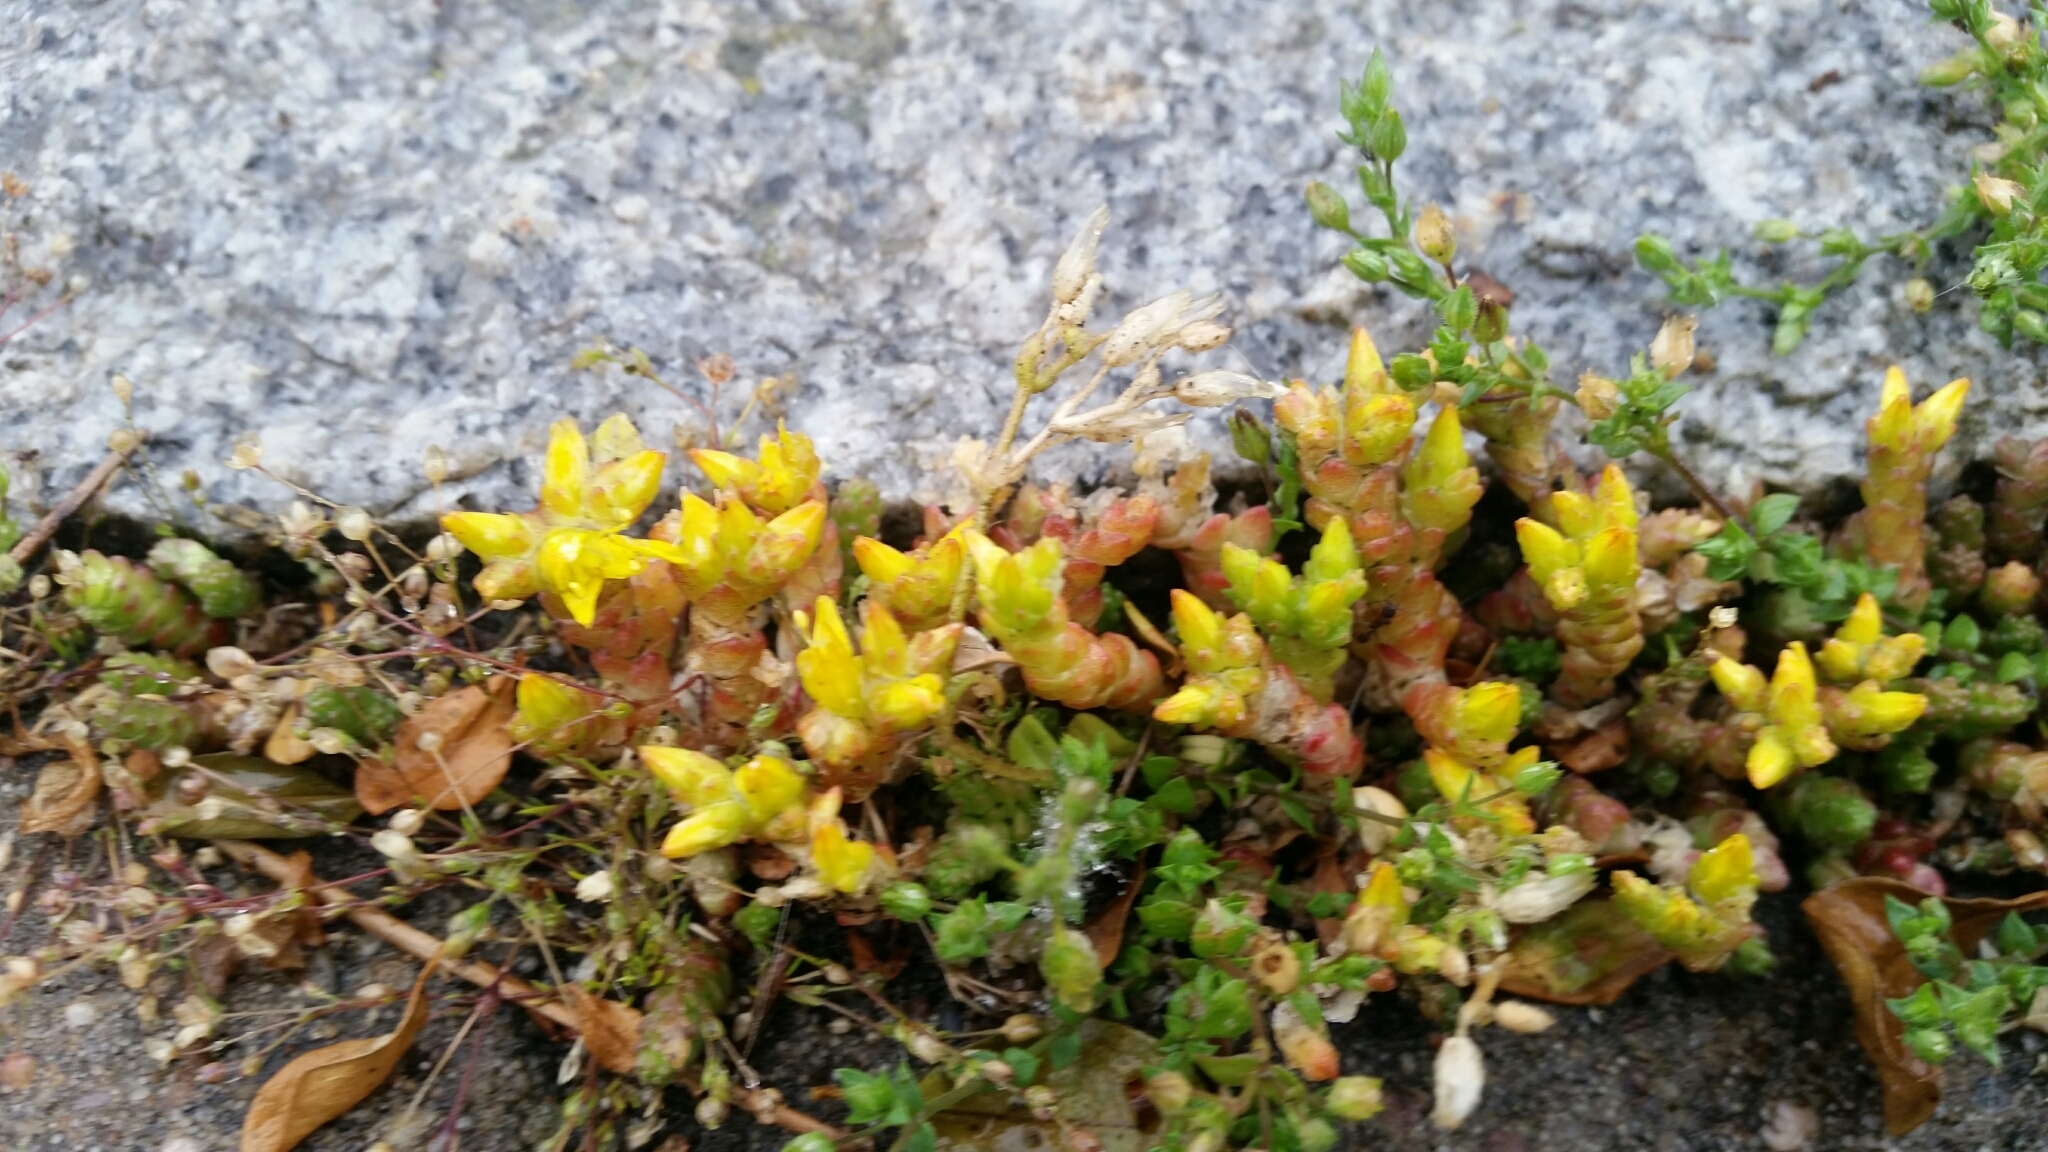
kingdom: Plantae
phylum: Tracheophyta
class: Magnoliopsida
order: Saxifragales
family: Crassulaceae
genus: Sedum
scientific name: Sedum acre
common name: Biting stonecrop
